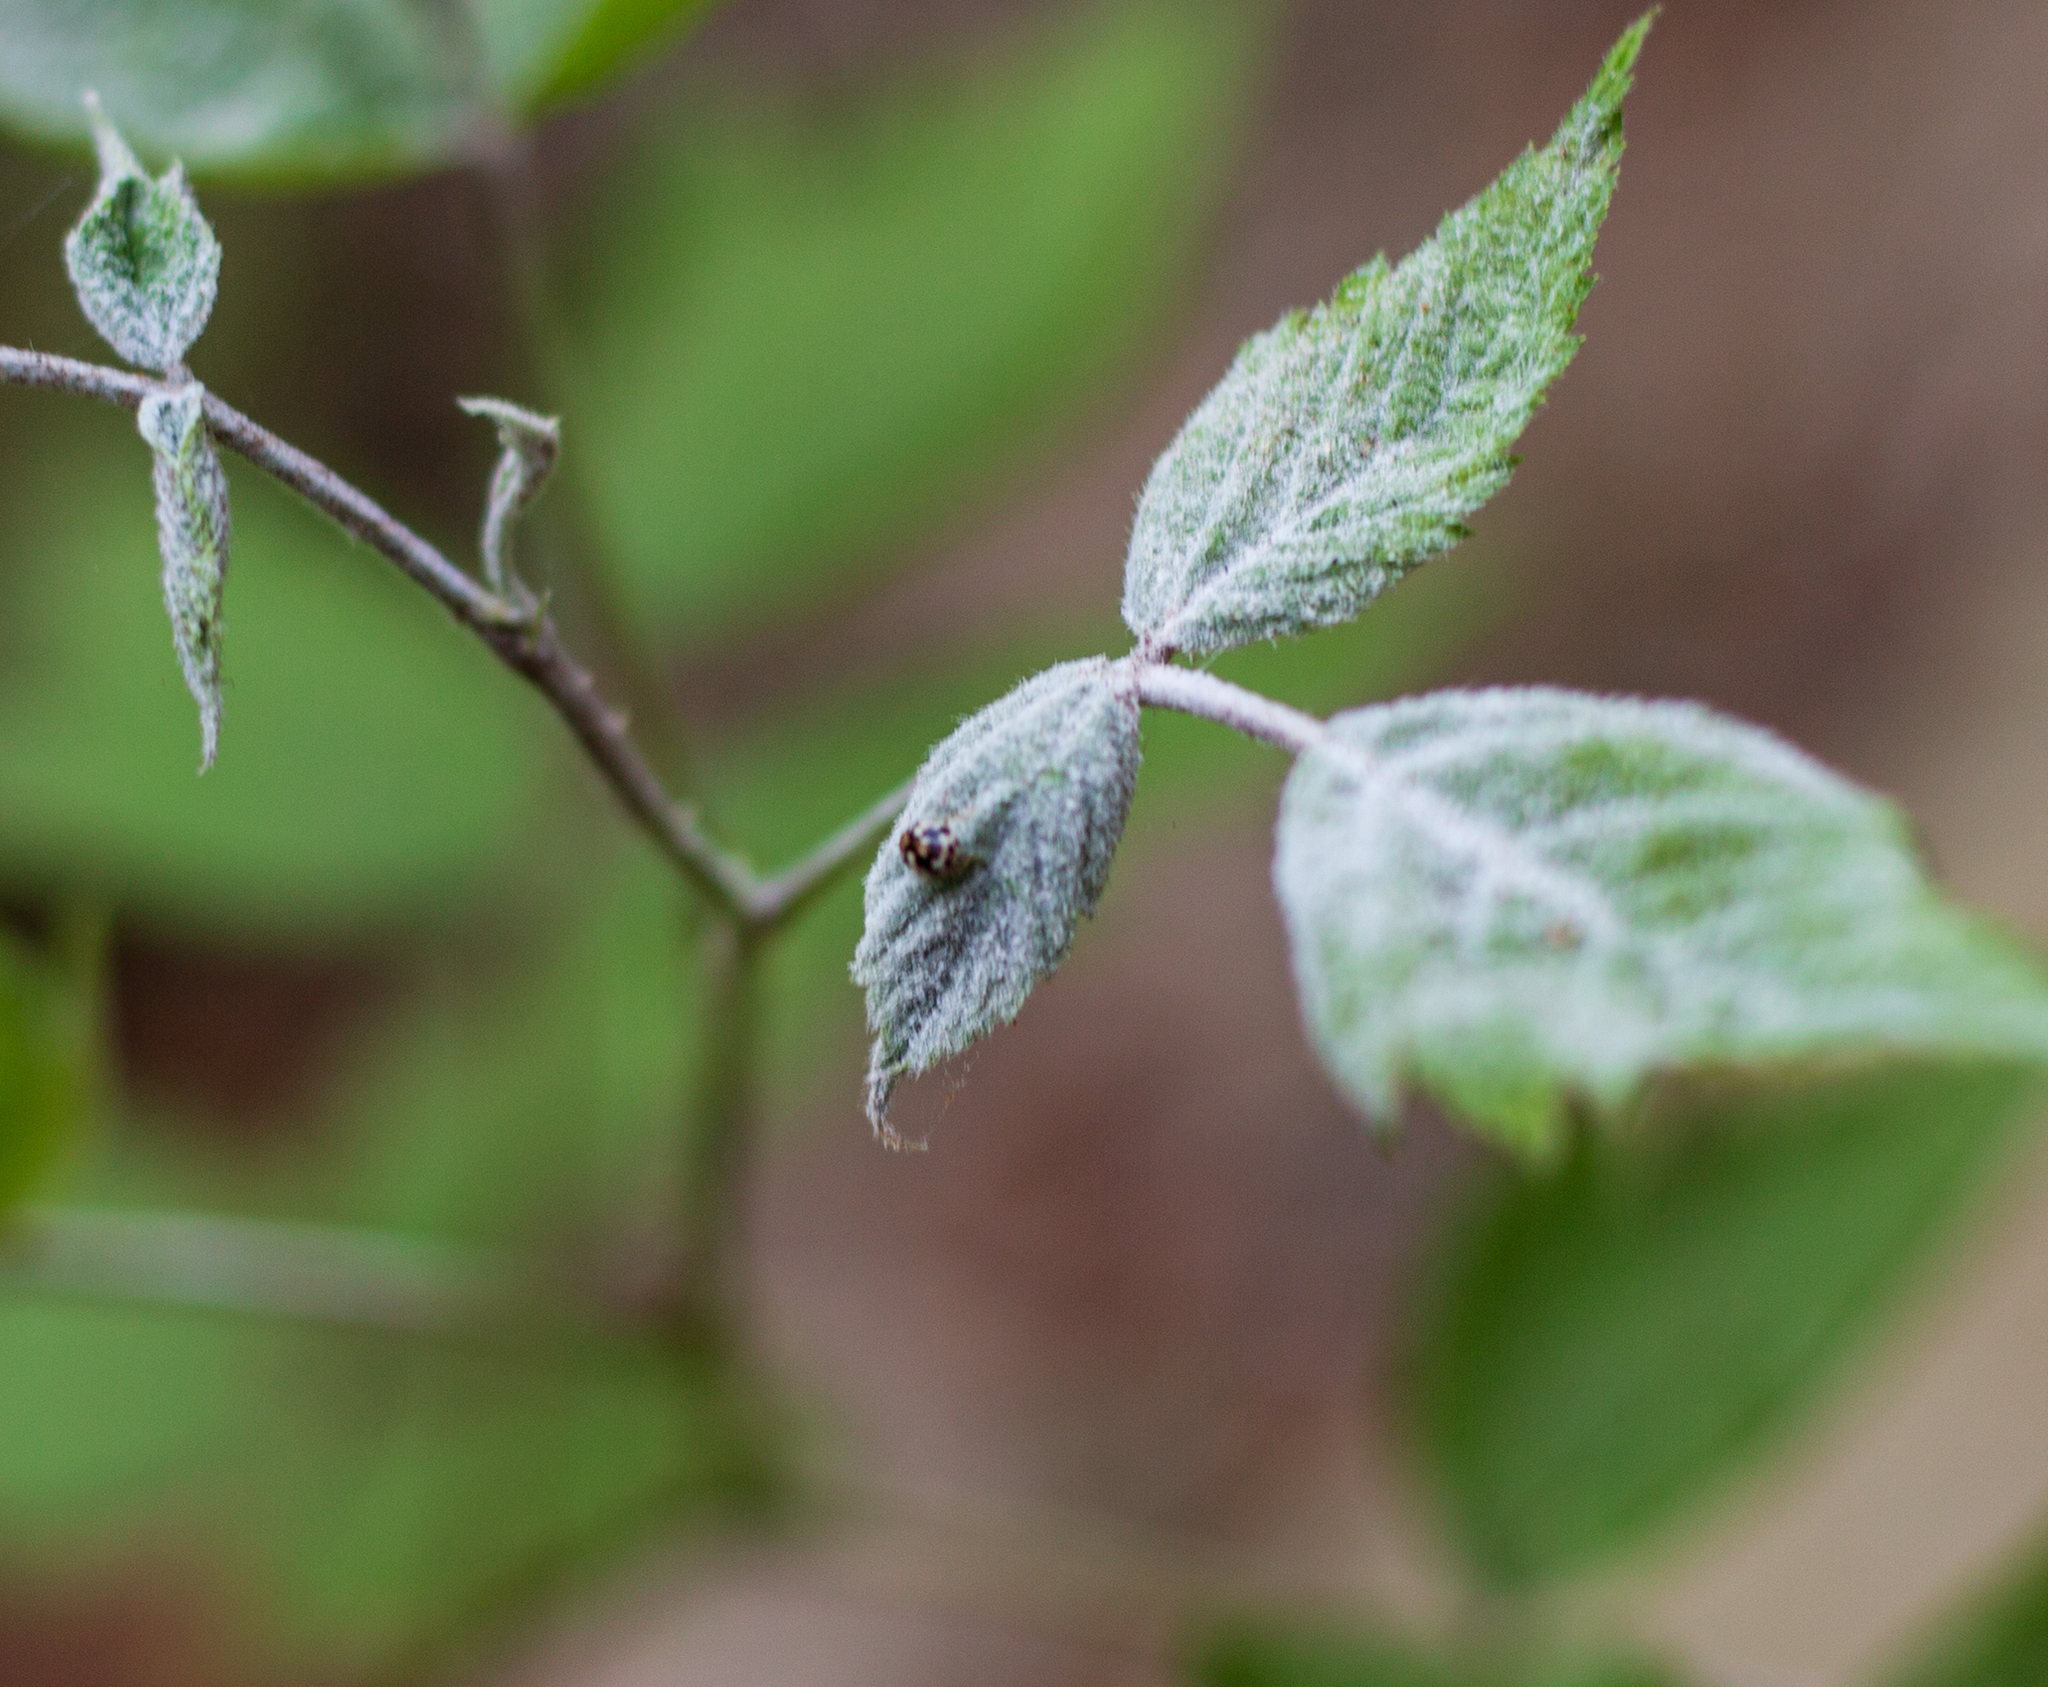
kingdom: Animalia
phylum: Arthropoda
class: Insecta
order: Coleoptera
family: Coccinellidae
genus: Psyllobora
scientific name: Psyllobora borealis
